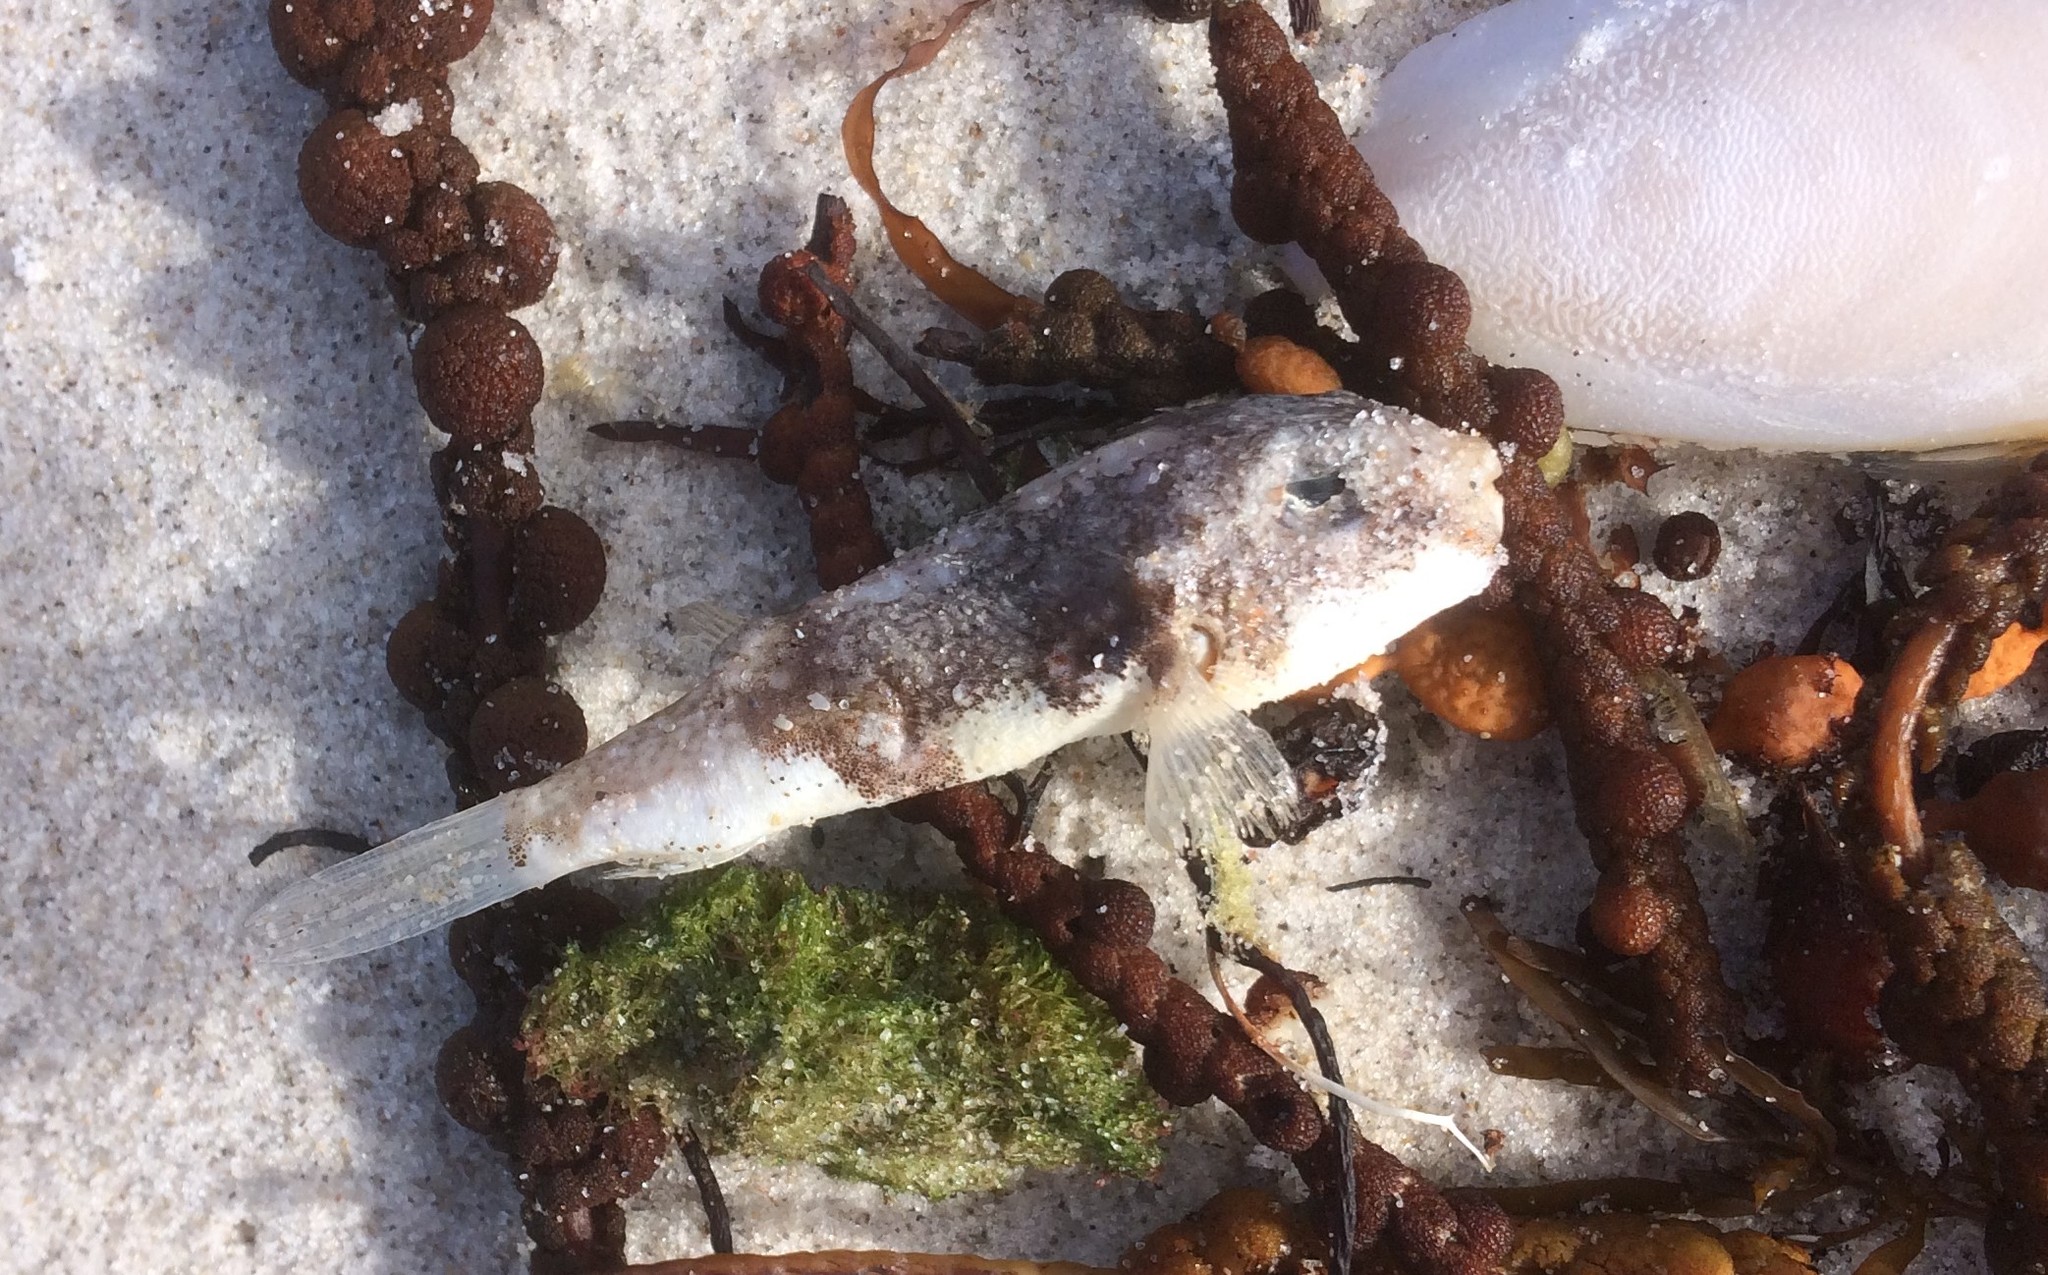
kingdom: Animalia
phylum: Chordata
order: Tetraodontiformes
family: Tetraodontidae
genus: Polyspina
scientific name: Polyspina piosae
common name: Orange-barred pufferfish
